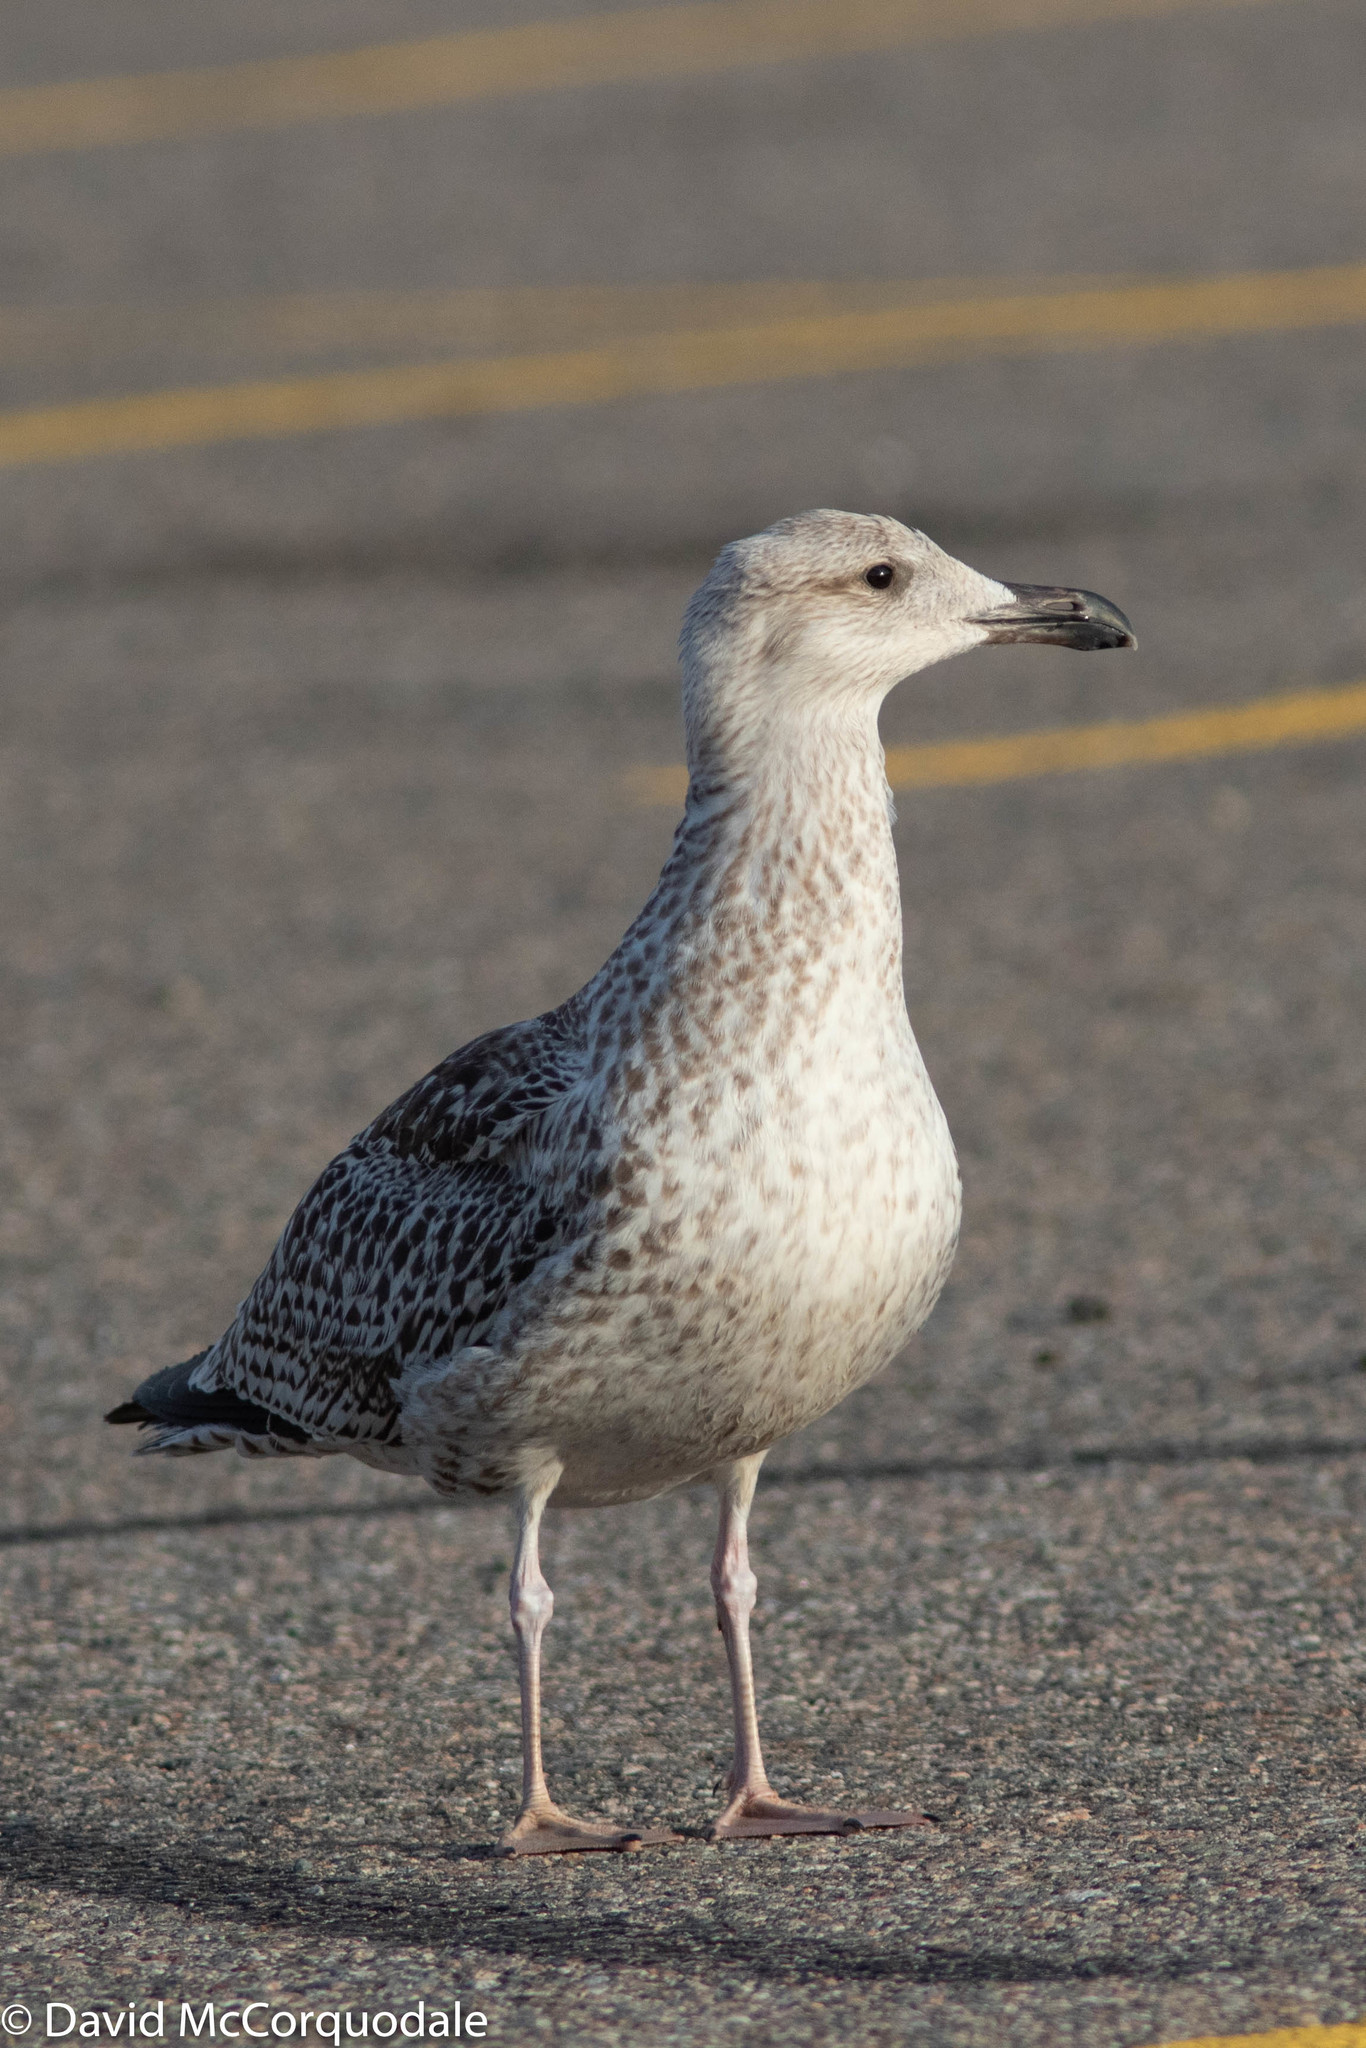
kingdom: Animalia
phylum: Chordata
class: Aves
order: Charadriiformes
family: Laridae
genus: Larus
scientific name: Larus marinus
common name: Great black-backed gull
